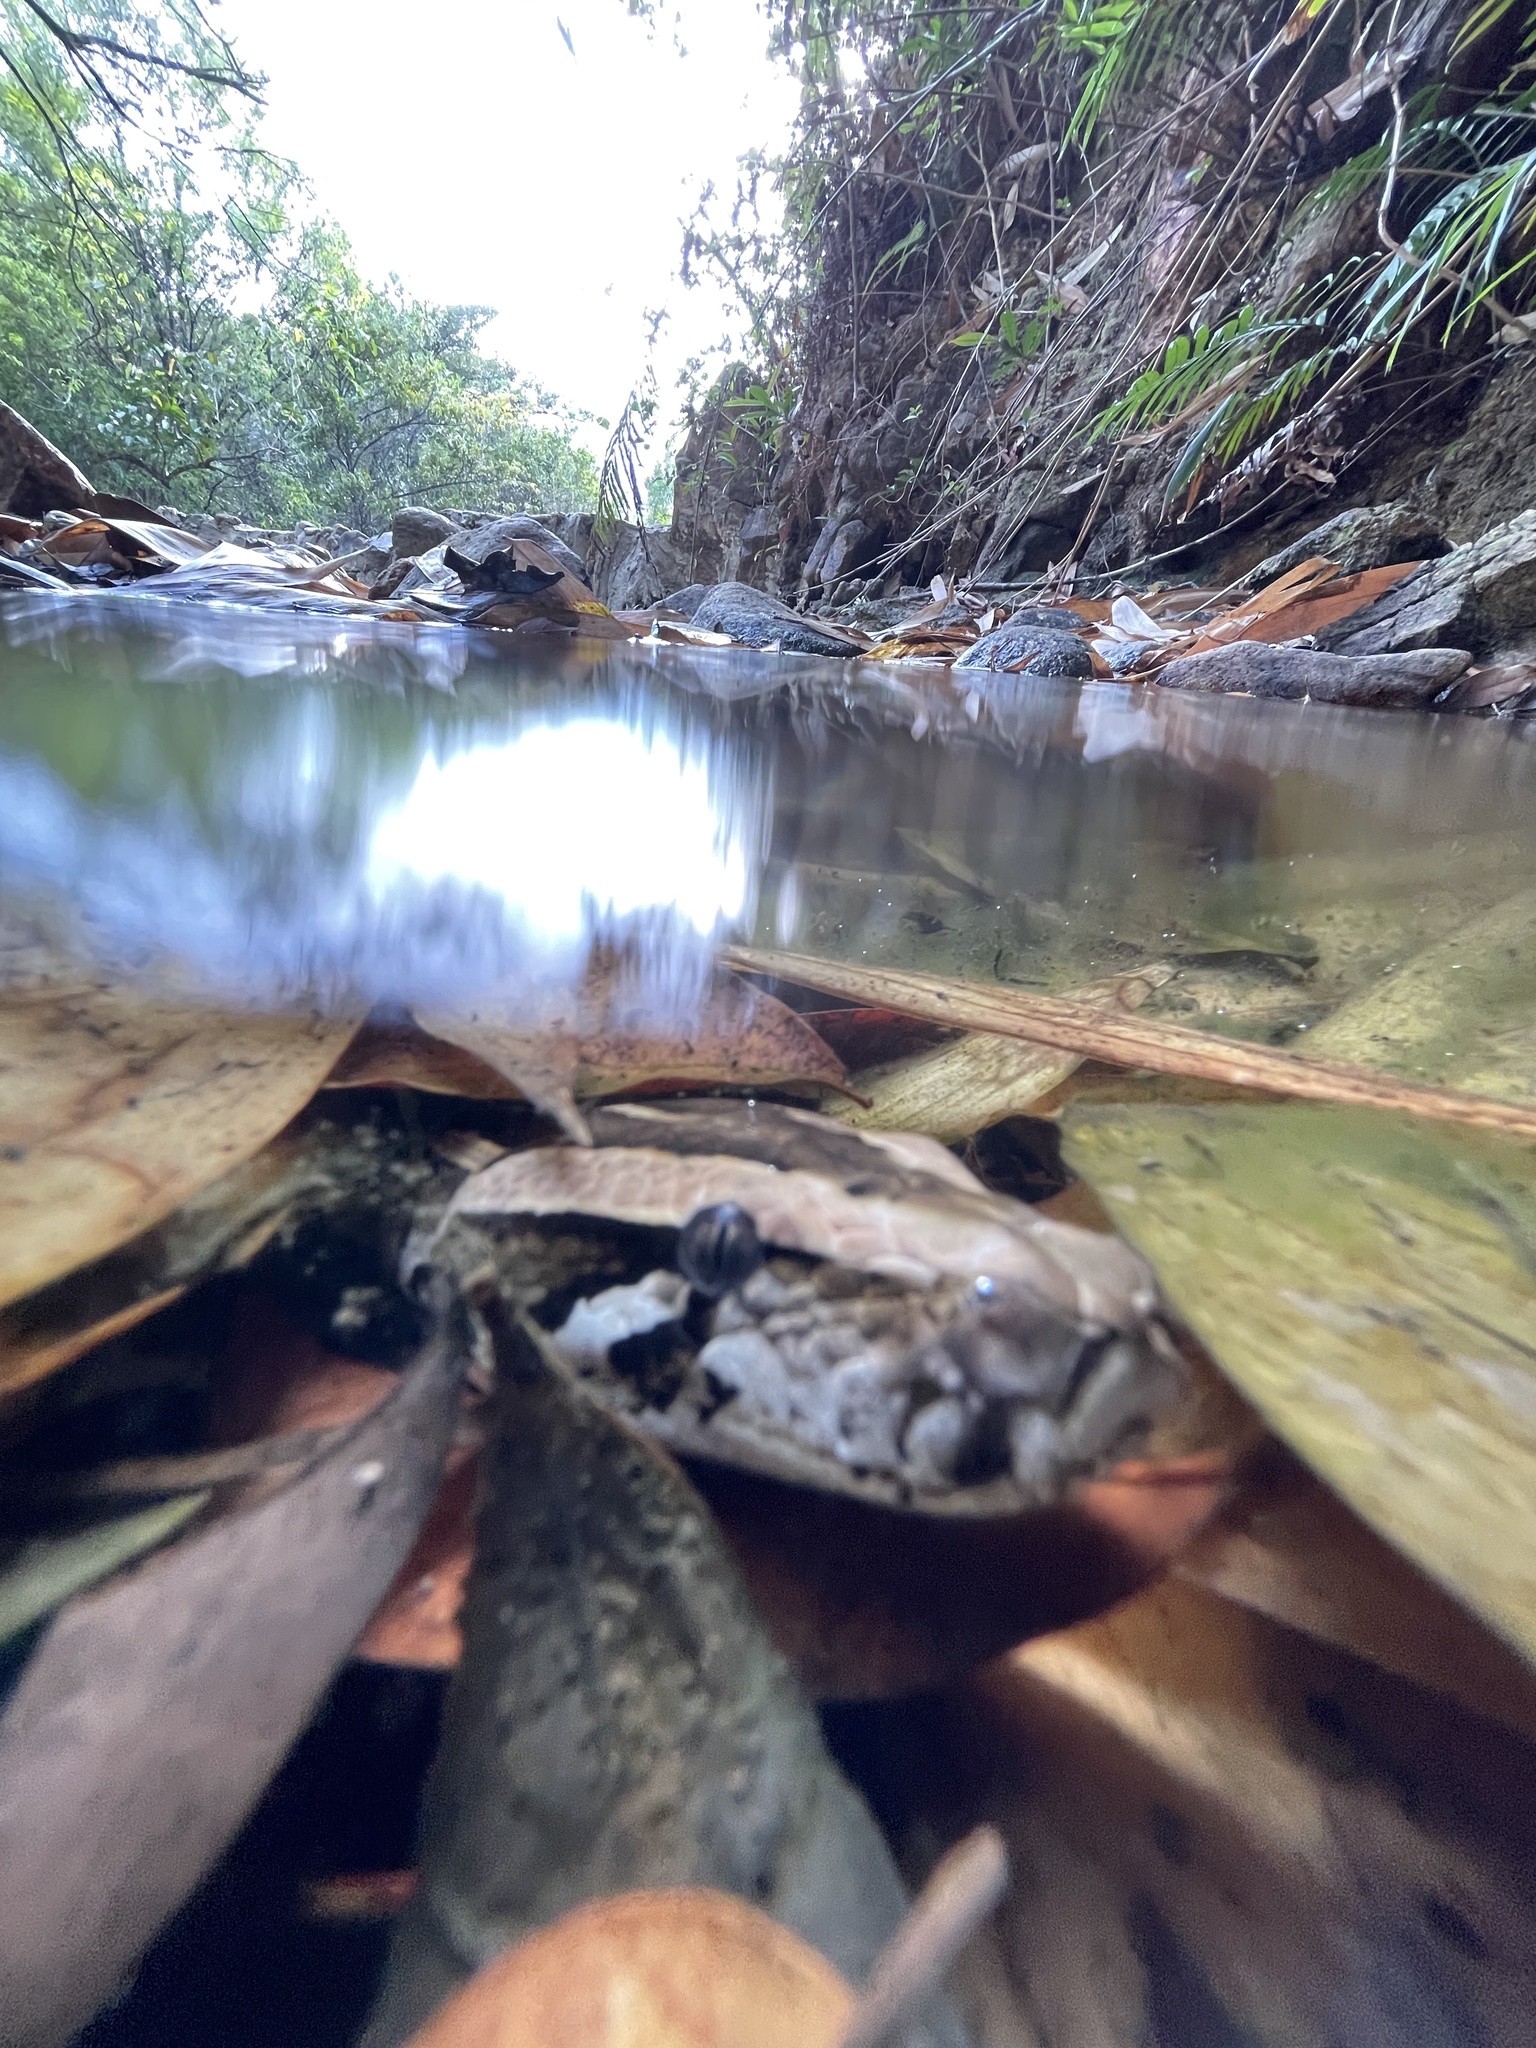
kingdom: Animalia
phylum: Chordata
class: Squamata
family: Pythonidae
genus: Python
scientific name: Python bivittatus
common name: Burmese python
